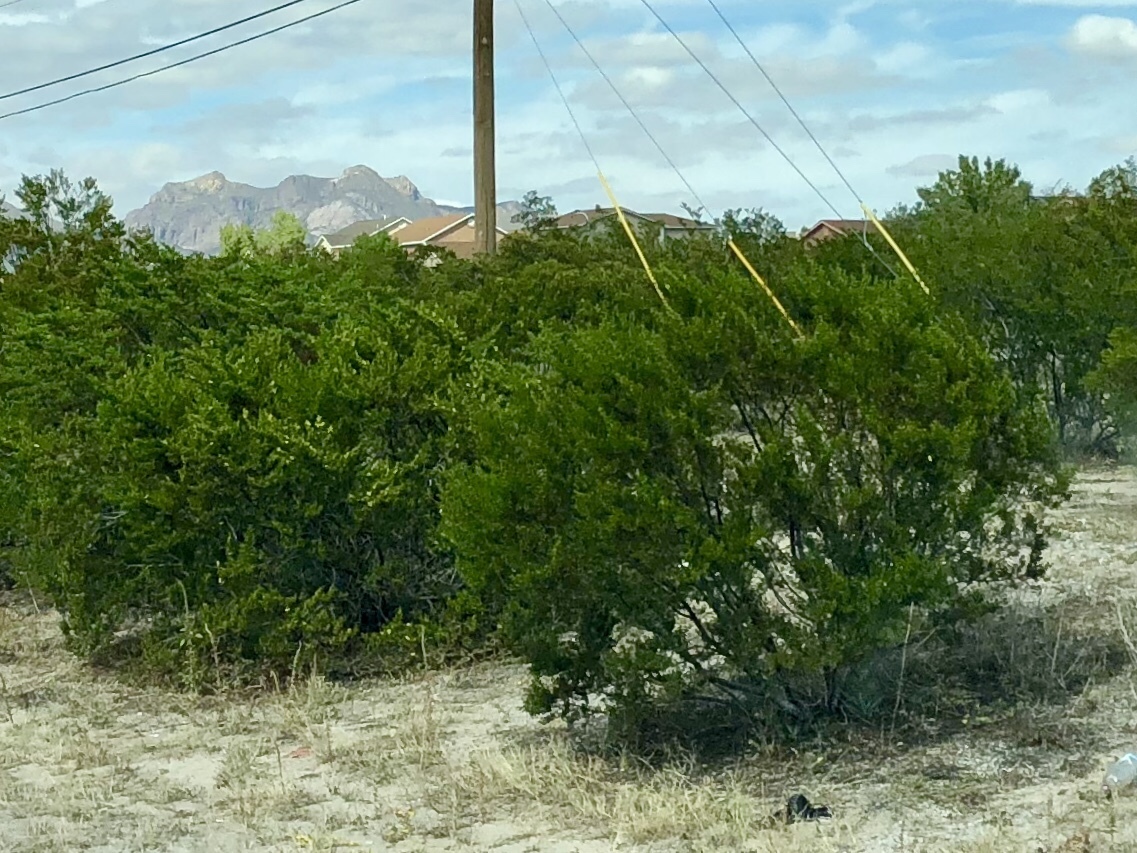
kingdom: Plantae
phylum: Tracheophyta
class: Magnoliopsida
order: Zygophyllales
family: Zygophyllaceae
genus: Larrea
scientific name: Larrea tridentata
